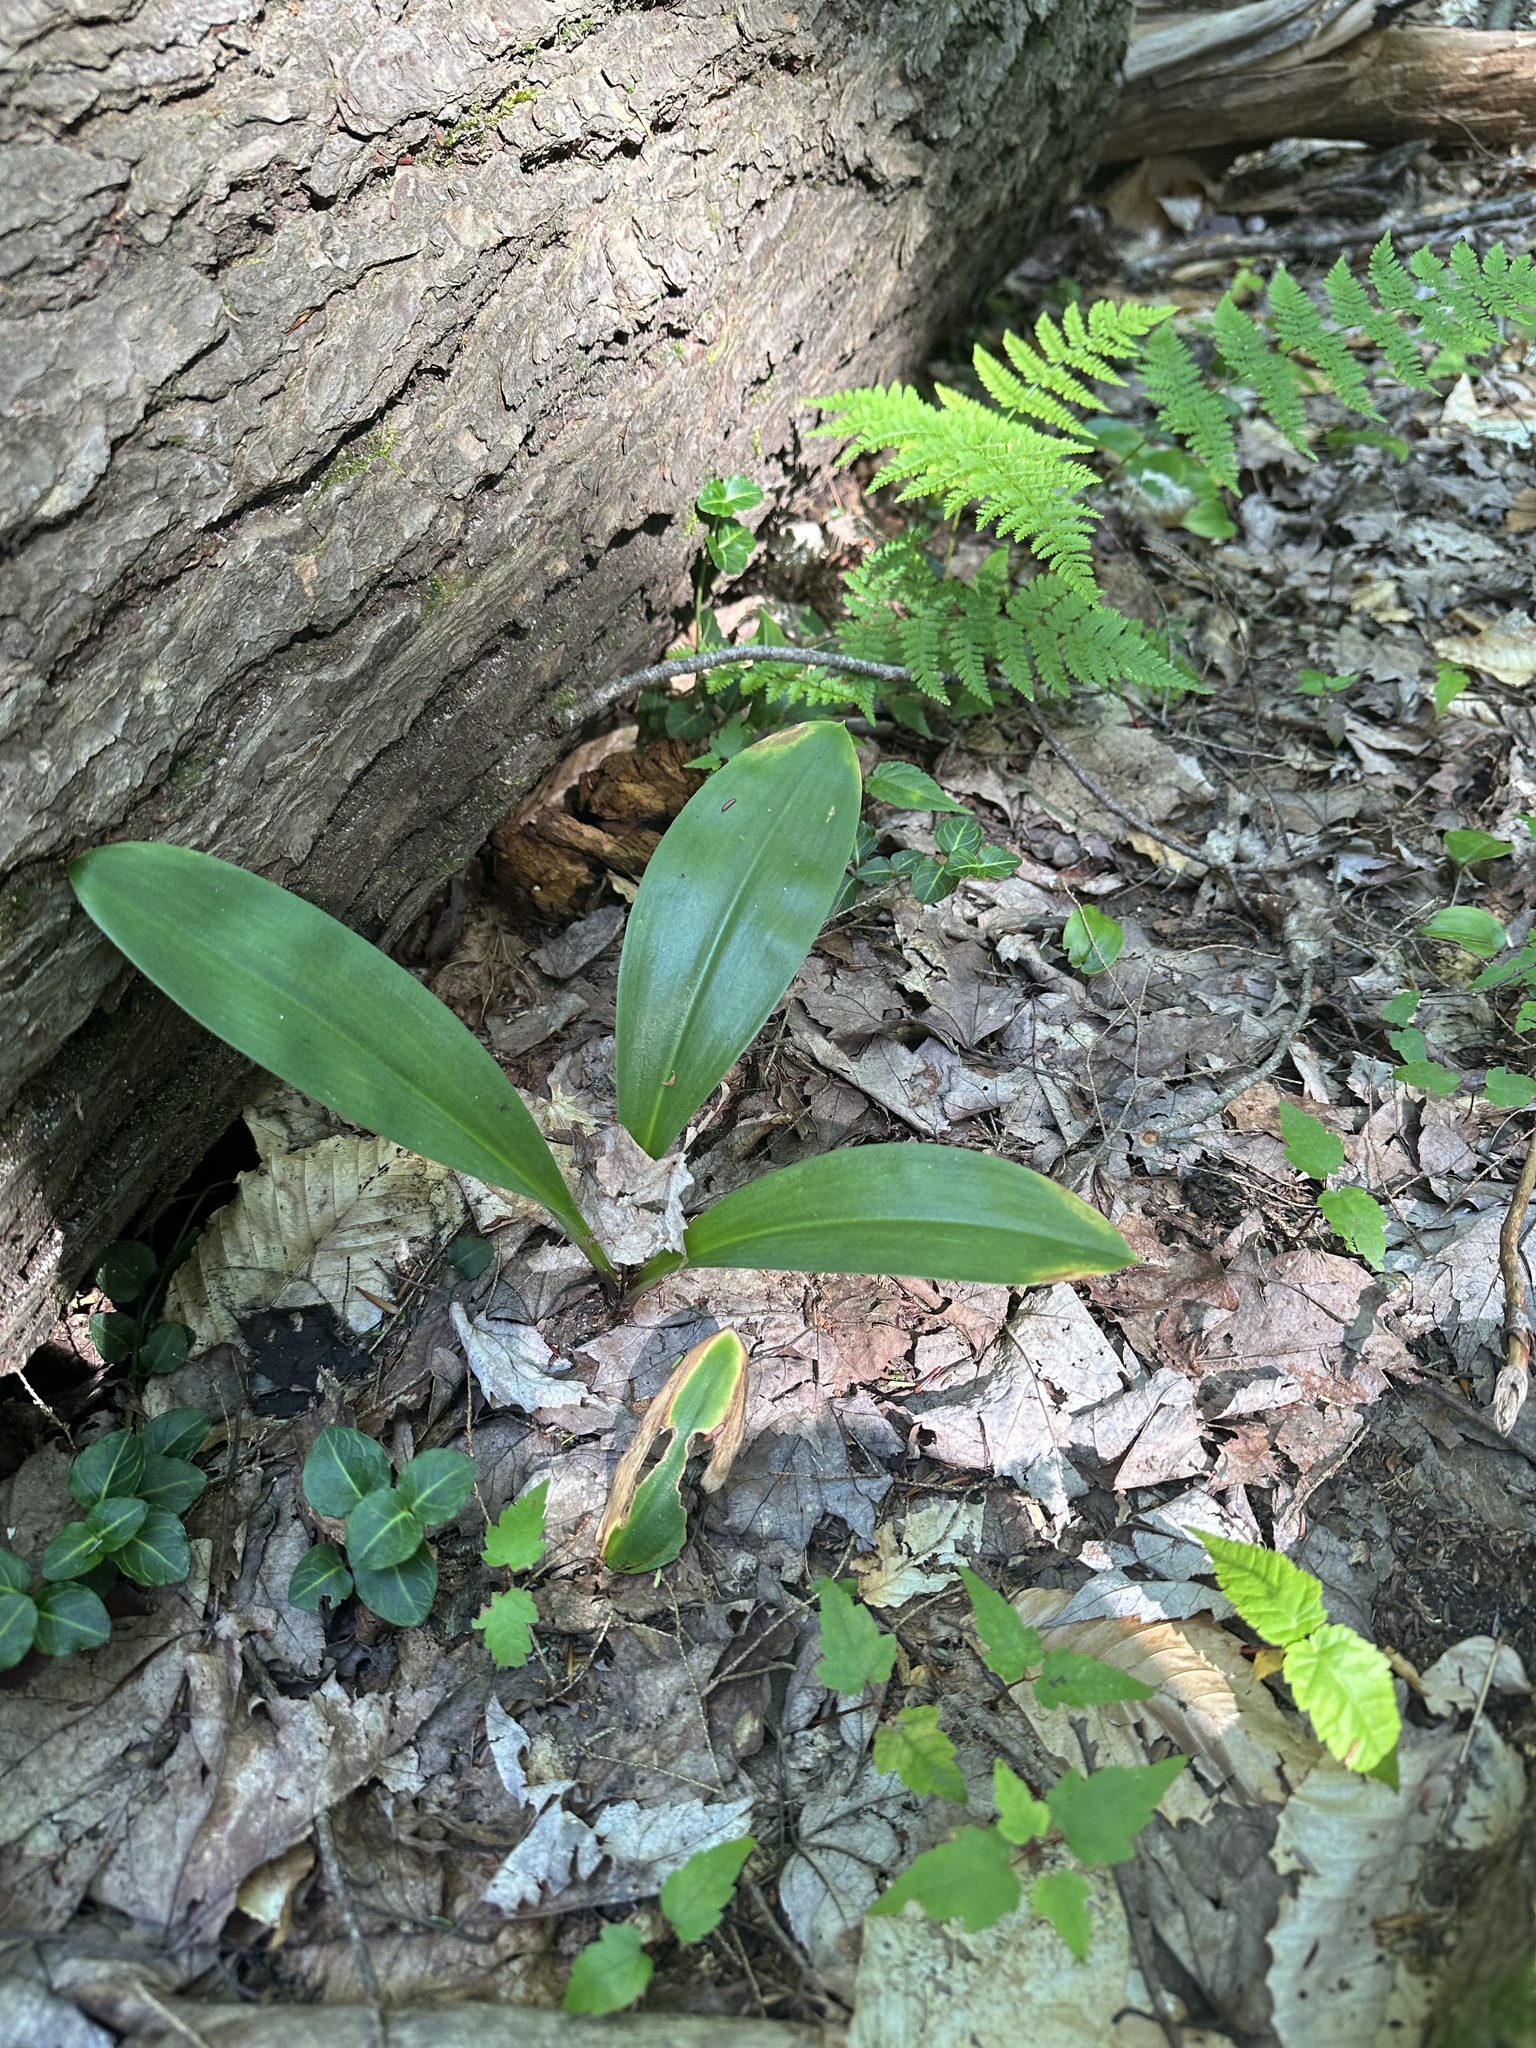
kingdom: Plantae
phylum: Tracheophyta
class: Liliopsida
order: Liliales
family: Liliaceae
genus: Clintonia
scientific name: Clintonia borealis
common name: Yellow clintonia
